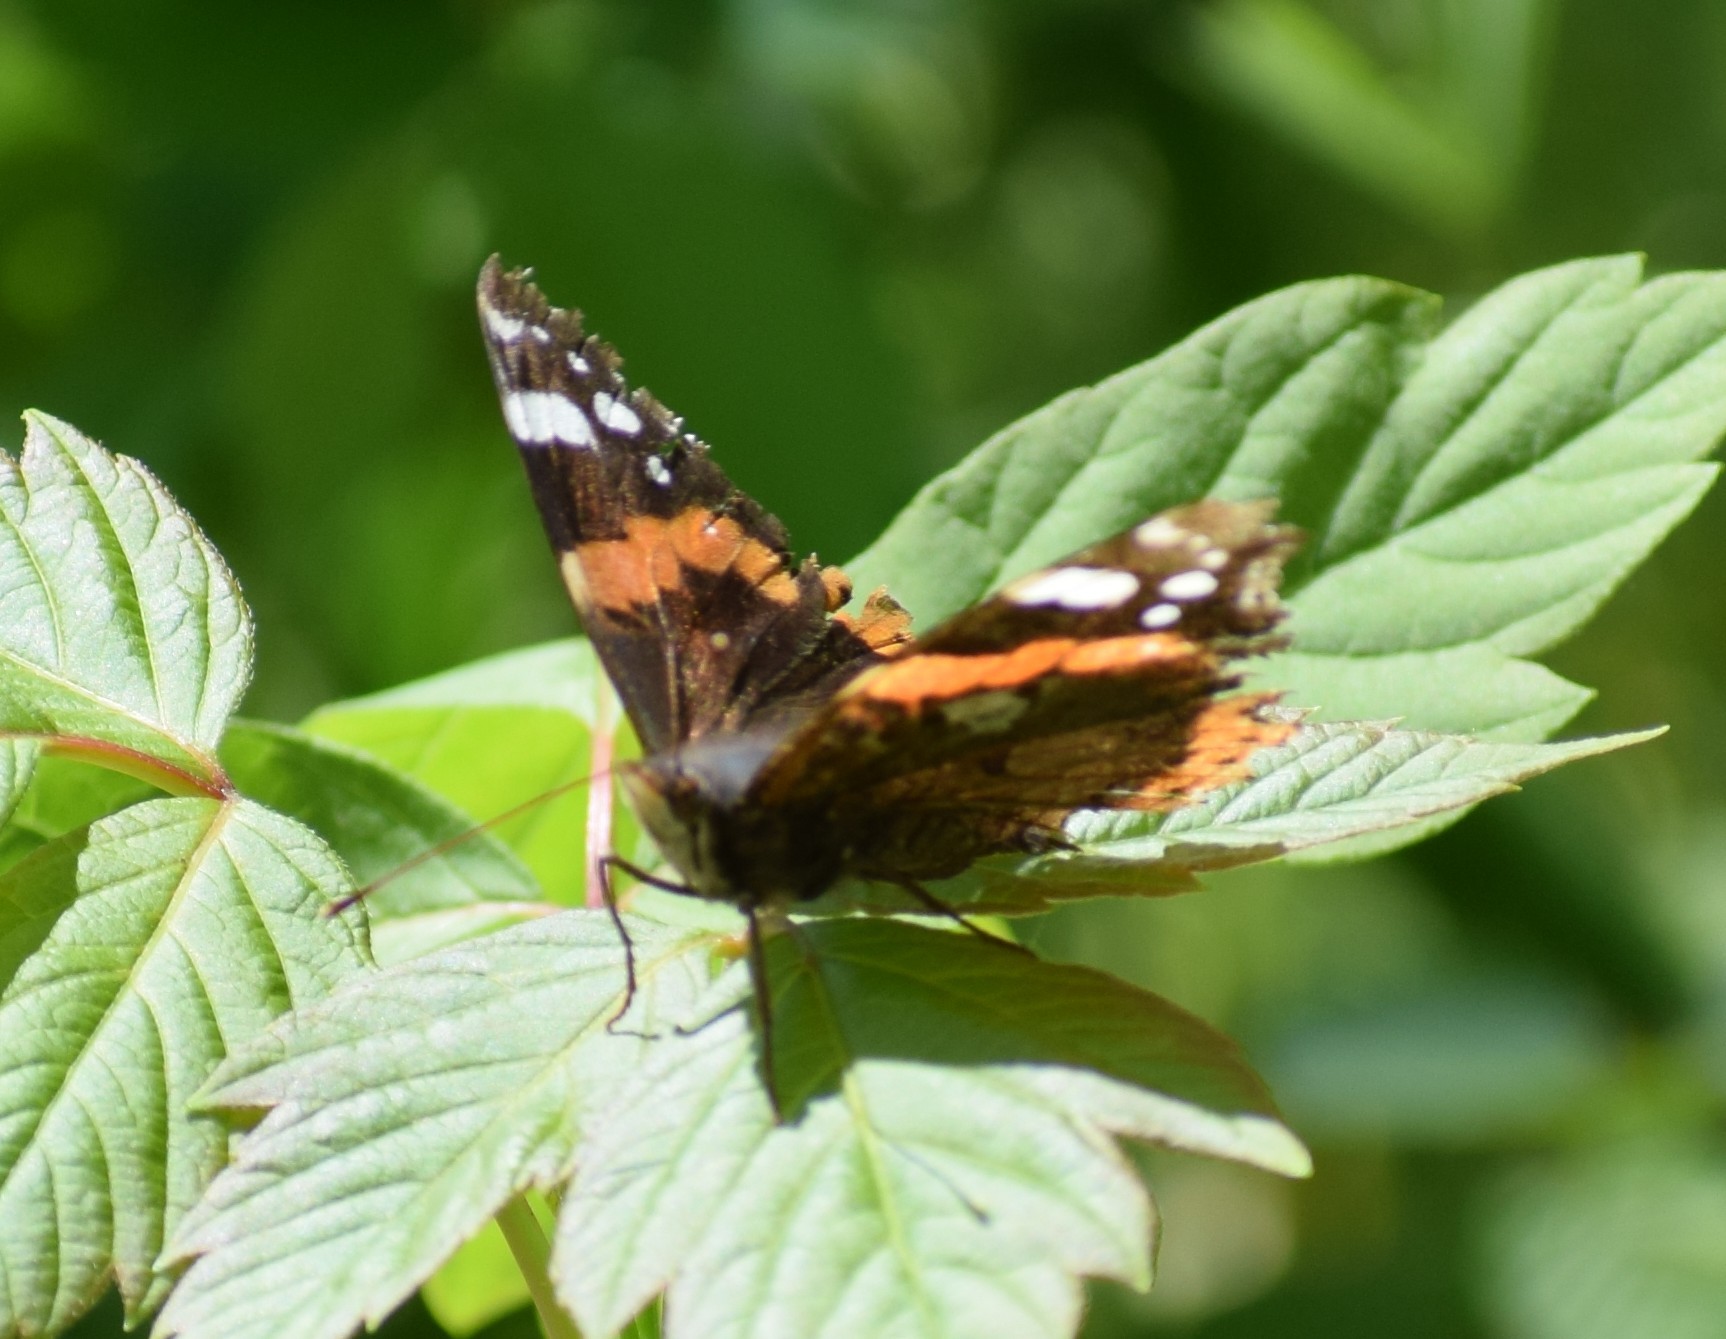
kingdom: Animalia
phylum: Arthropoda
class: Insecta
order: Lepidoptera
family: Nymphalidae
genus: Vanessa
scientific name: Vanessa atalanta
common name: Red admiral
